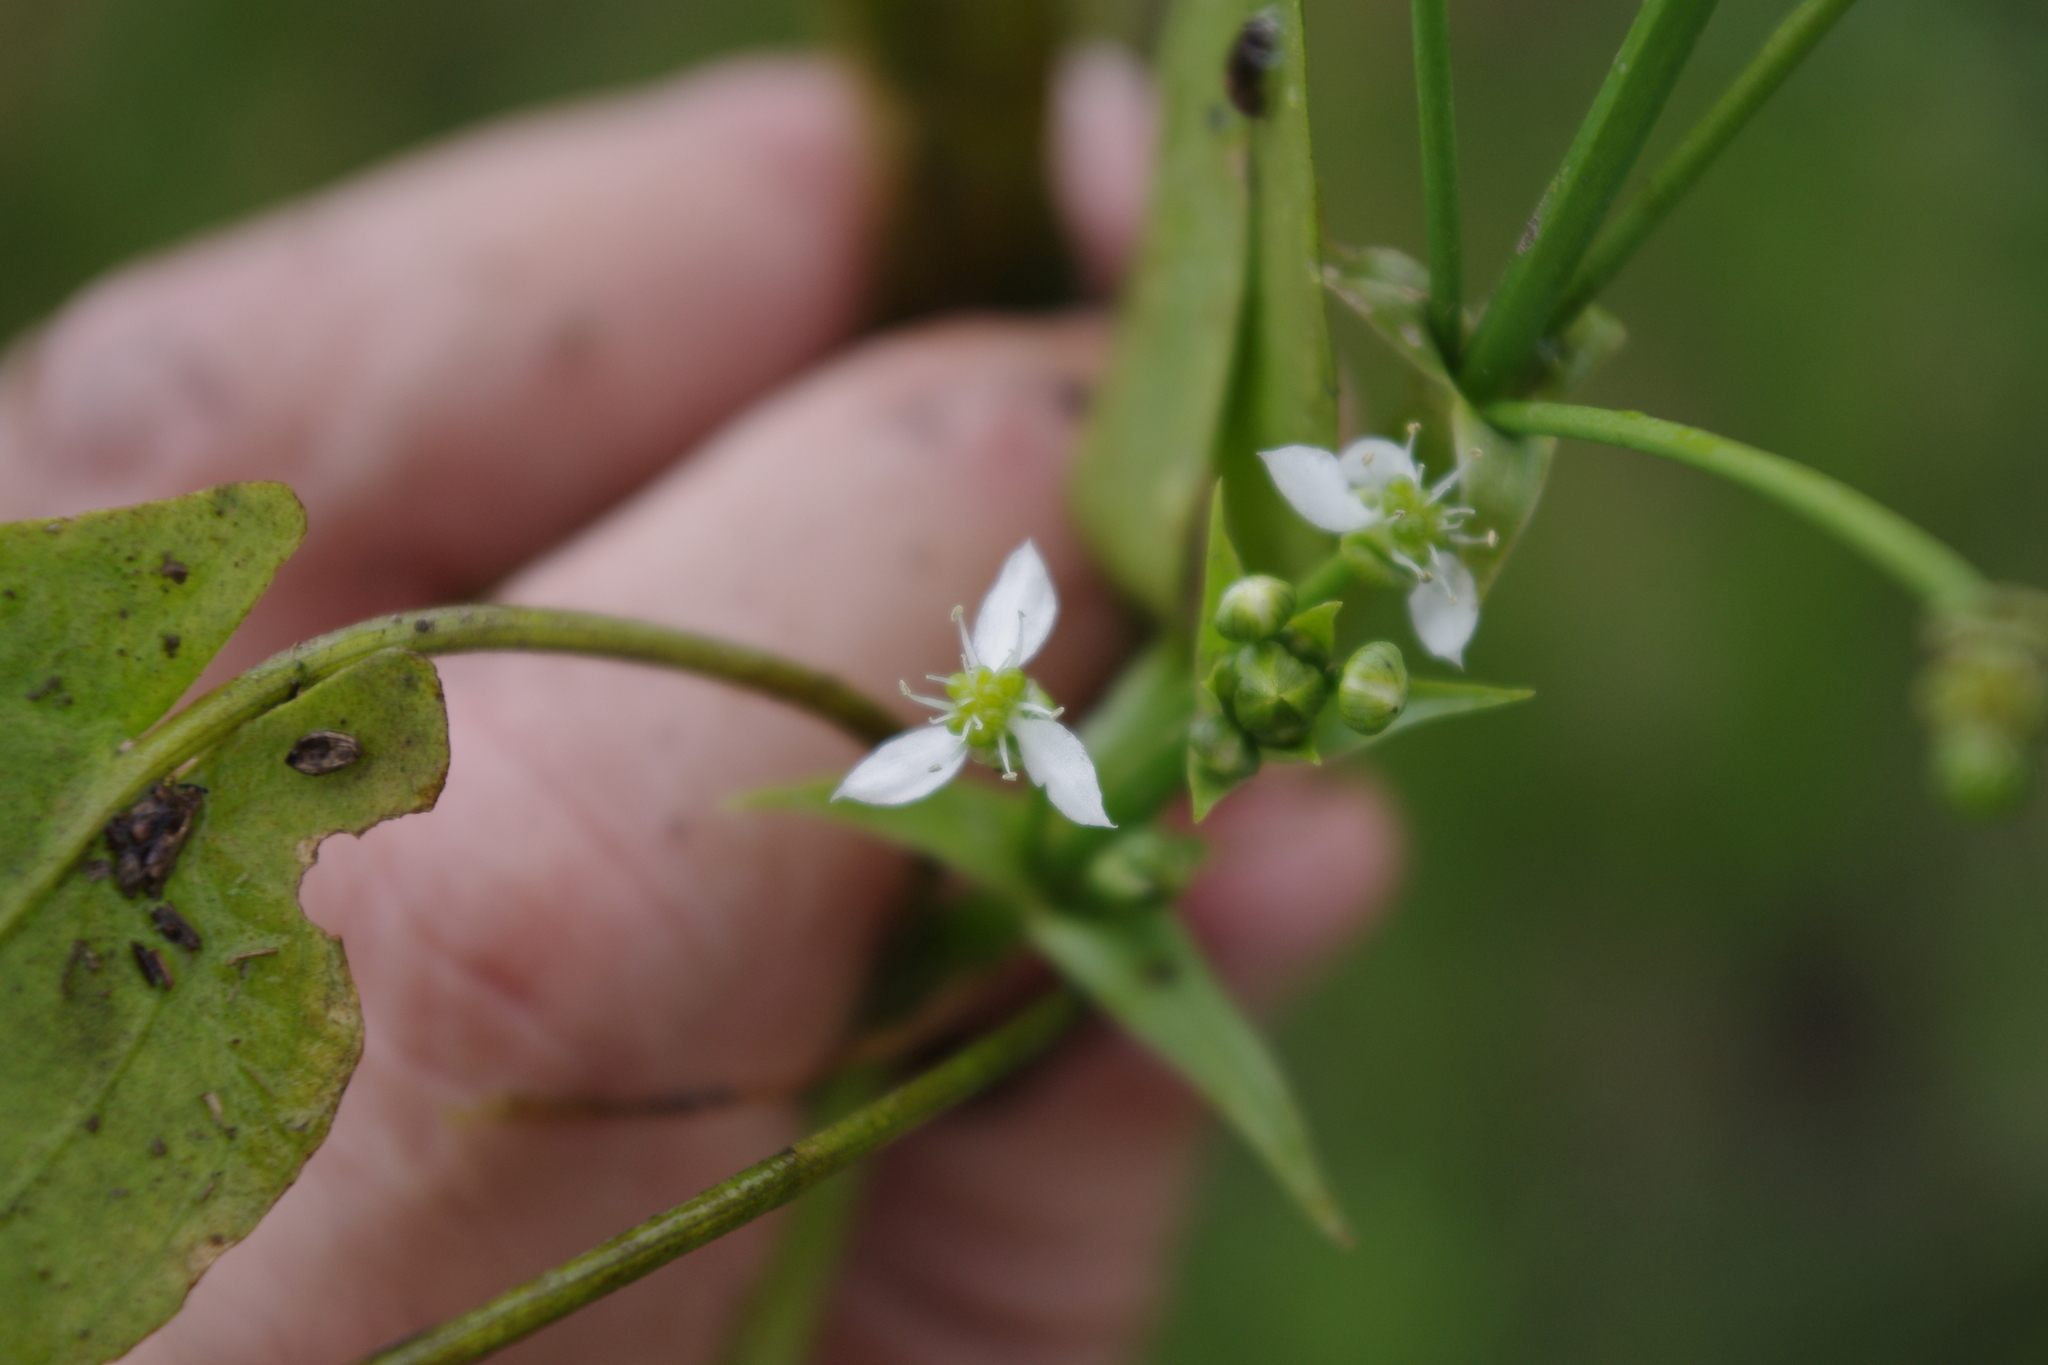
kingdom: Plantae
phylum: Tracheophyta
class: Liliopsida
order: Alismatales
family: Alismataceae
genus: Albidella
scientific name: Albidella oligococca
